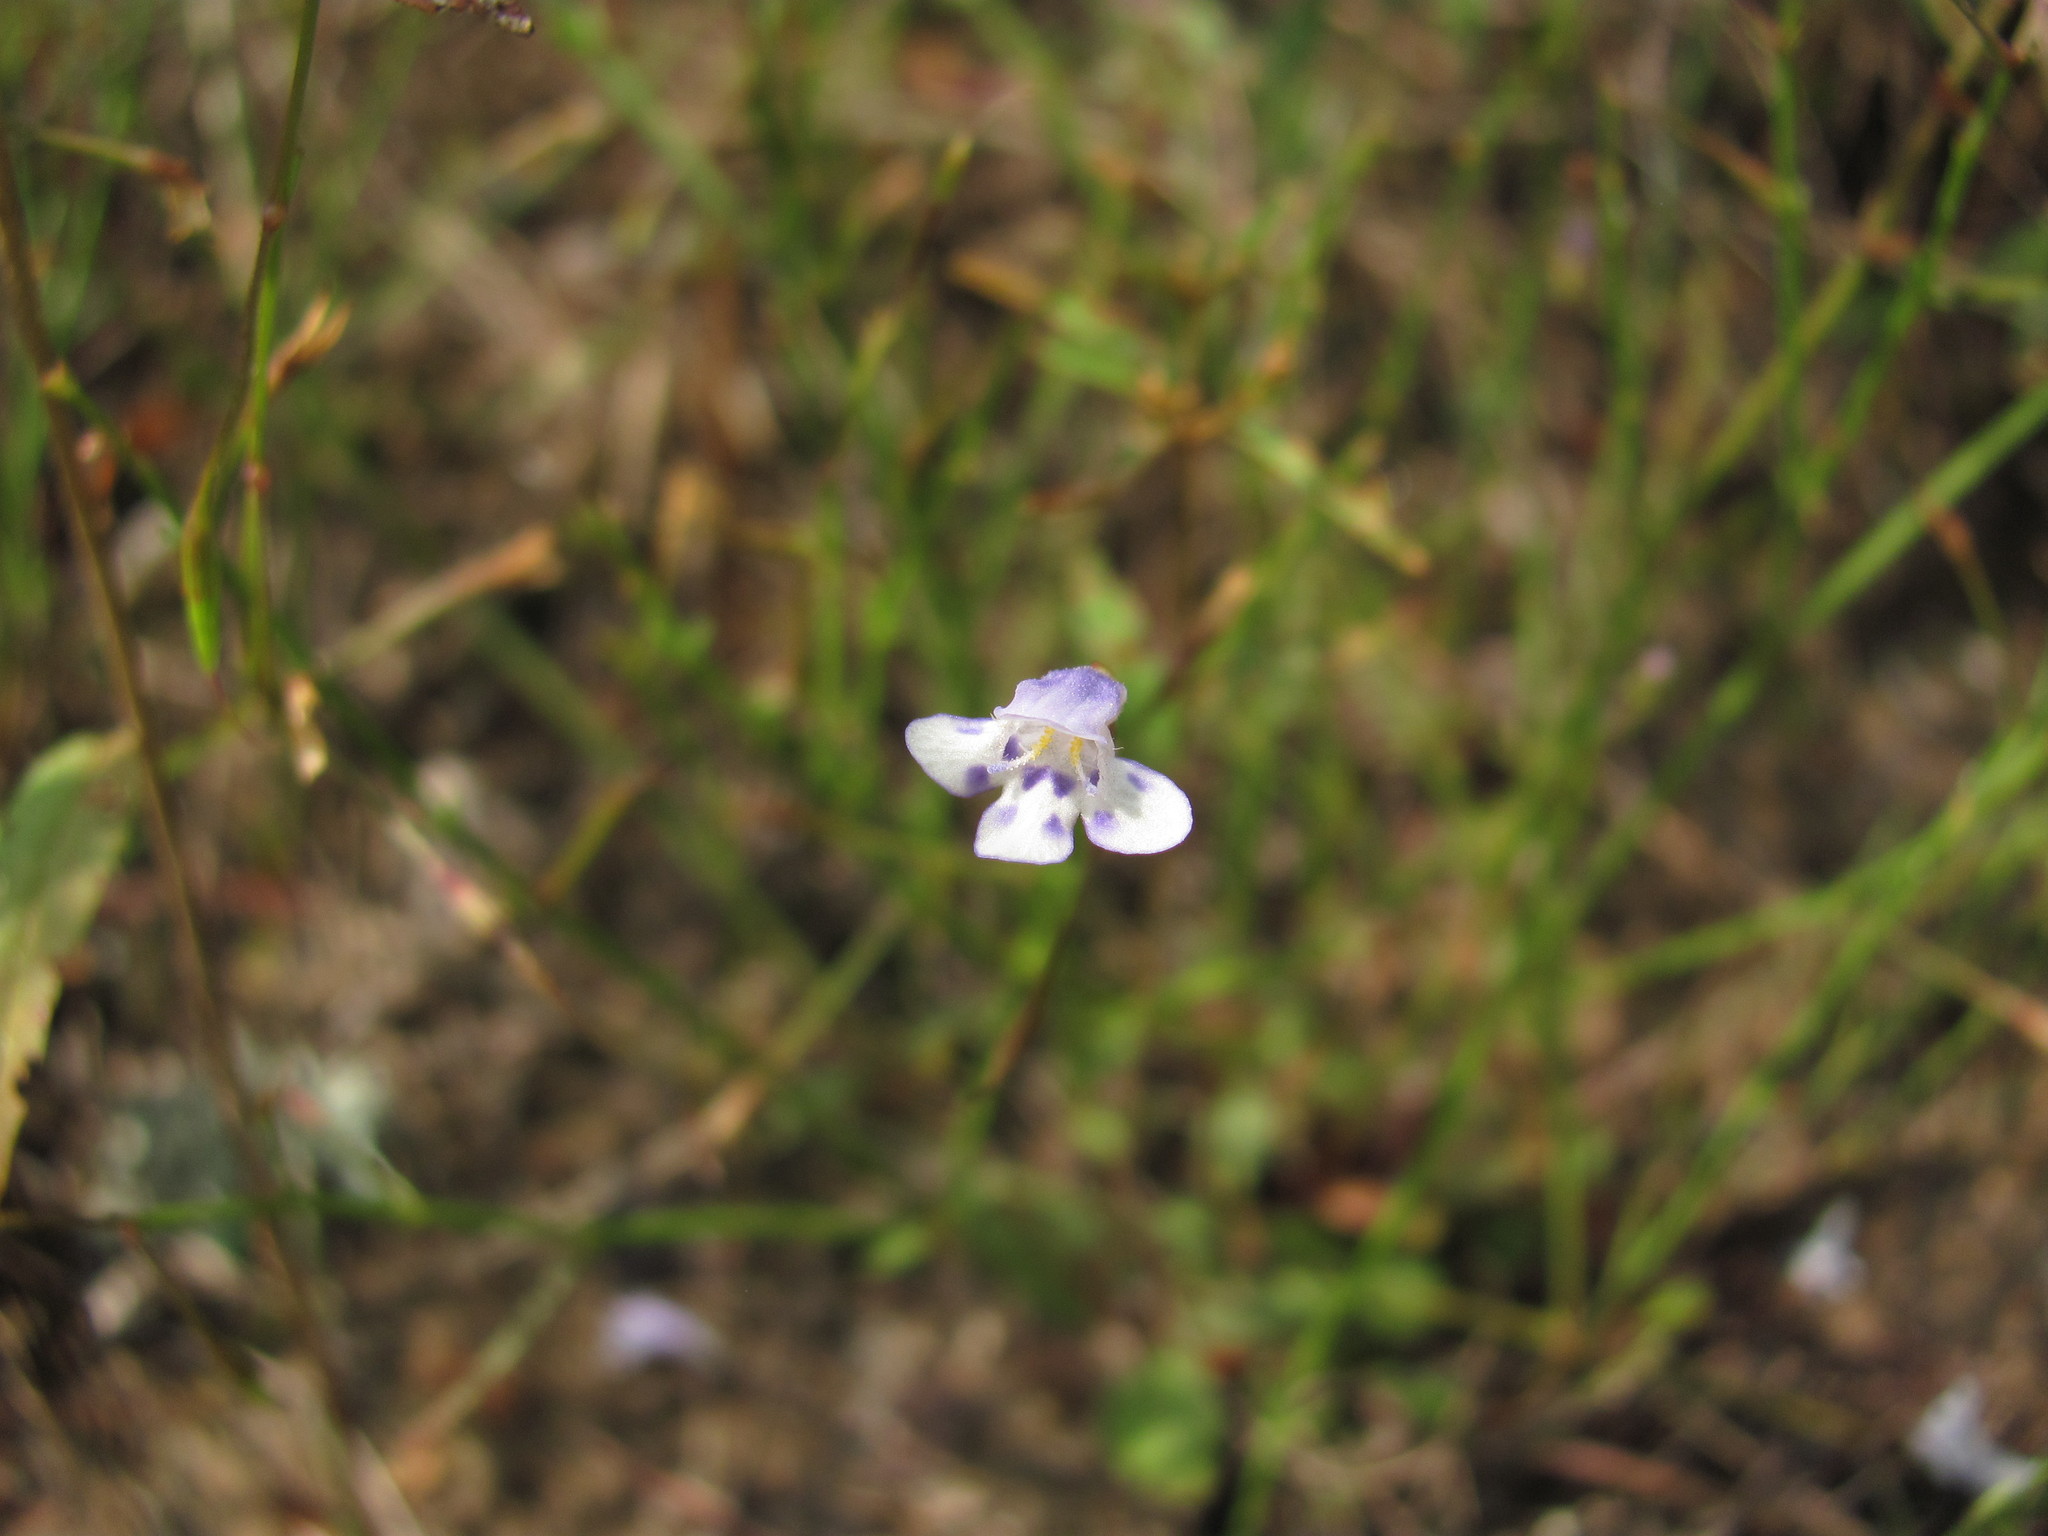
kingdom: Plantae
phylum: Tracheophyta
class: Magnoliopsida
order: Lamiales
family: Linderniaceae
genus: Lindernia
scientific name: Lindernia monticola
